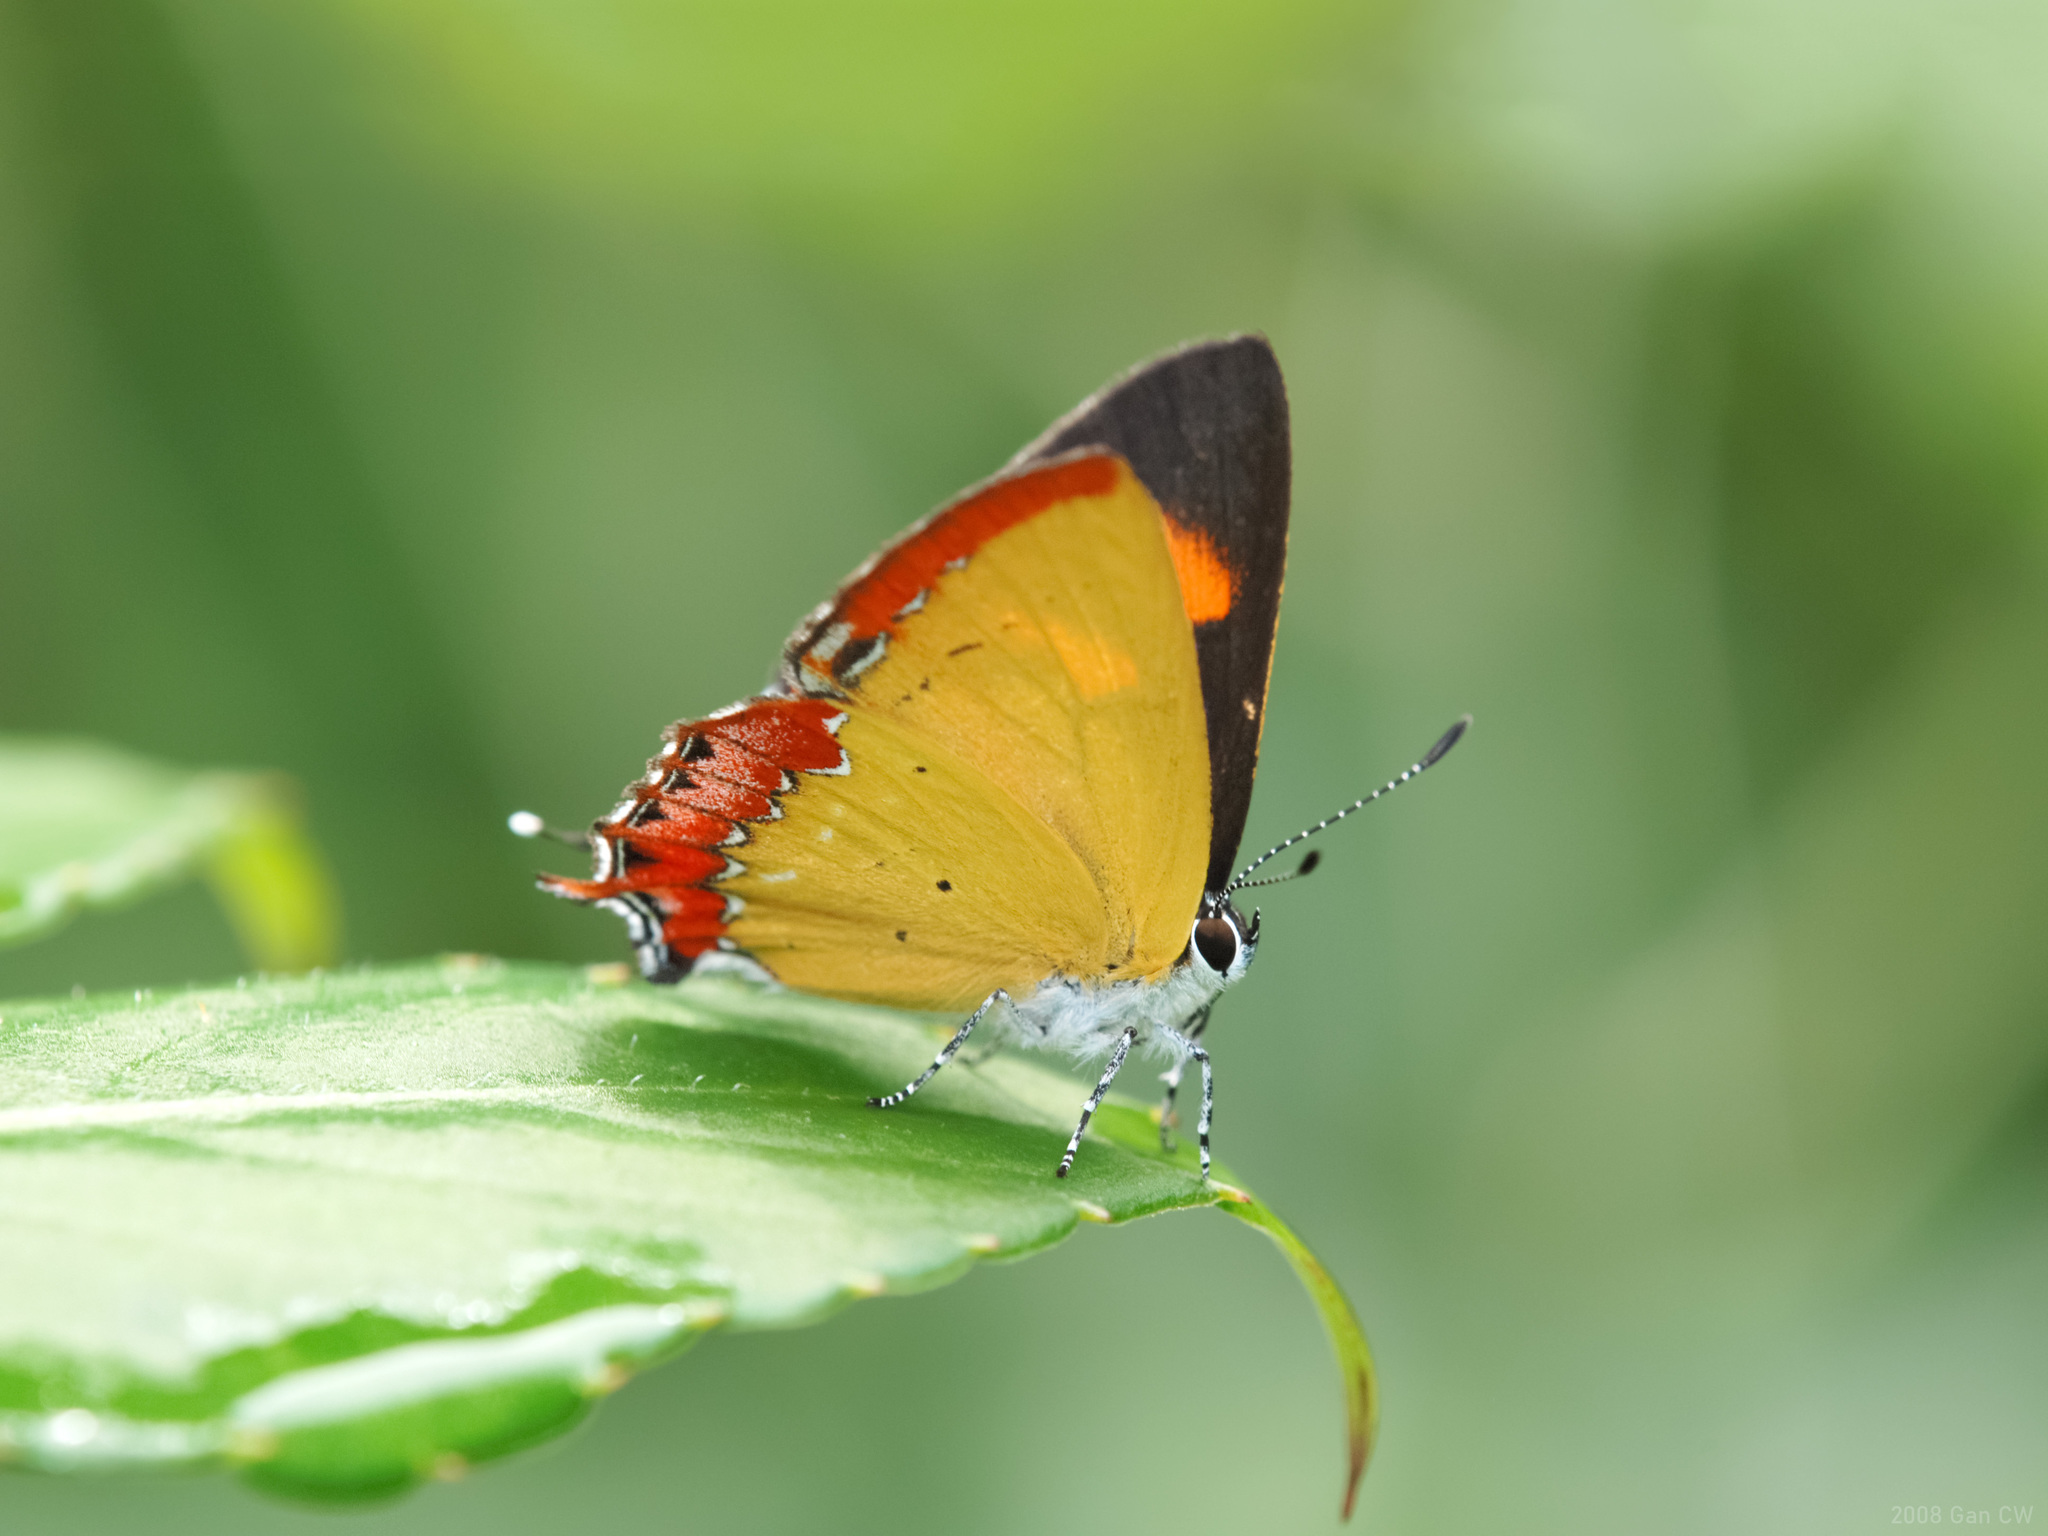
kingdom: Animalia
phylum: Arthropoda
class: Insecta
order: Lepidoptera
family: Lycaenidae
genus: Heliophorus
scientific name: Heliophorus epicles
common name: Purple sapphire
